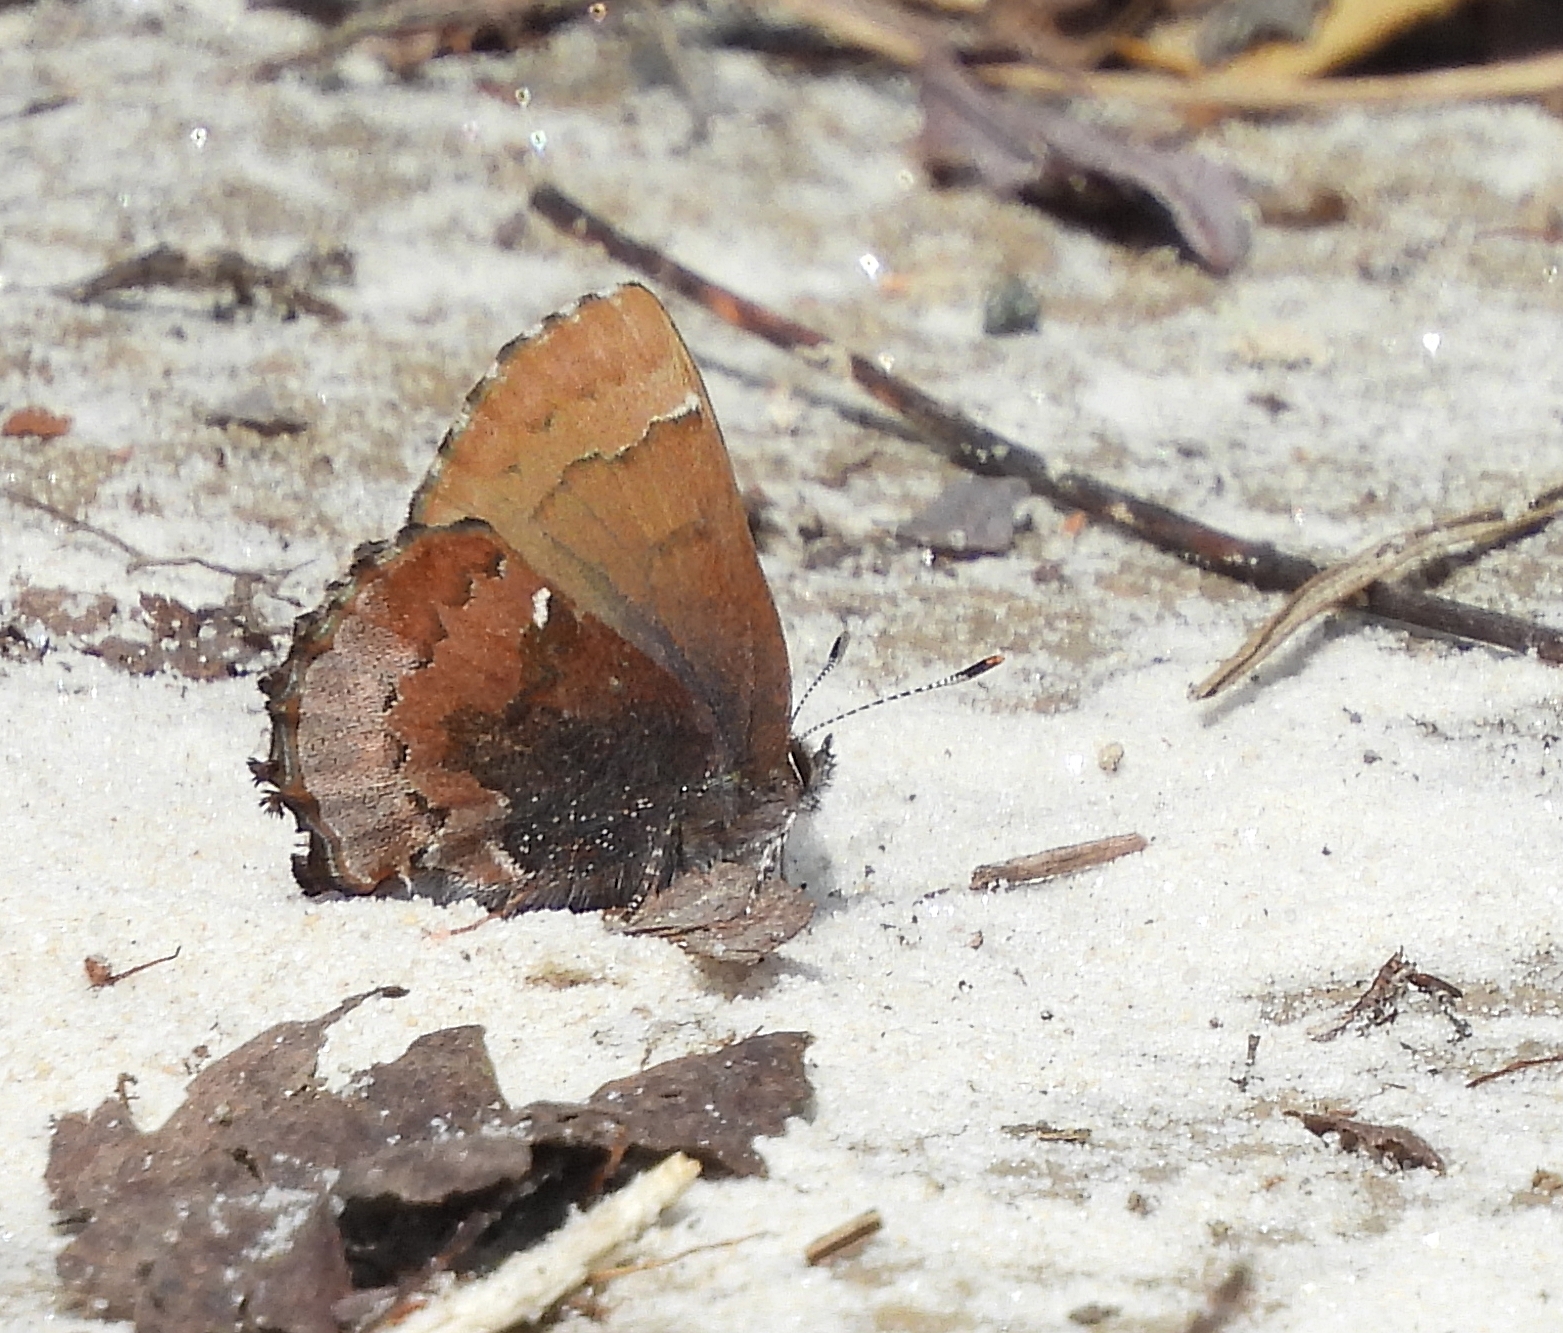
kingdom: Animalia
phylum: Arthropoda
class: Insecta
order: Lepidoptera
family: Lycaenidae
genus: Incisalia
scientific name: Incisalia henrici
